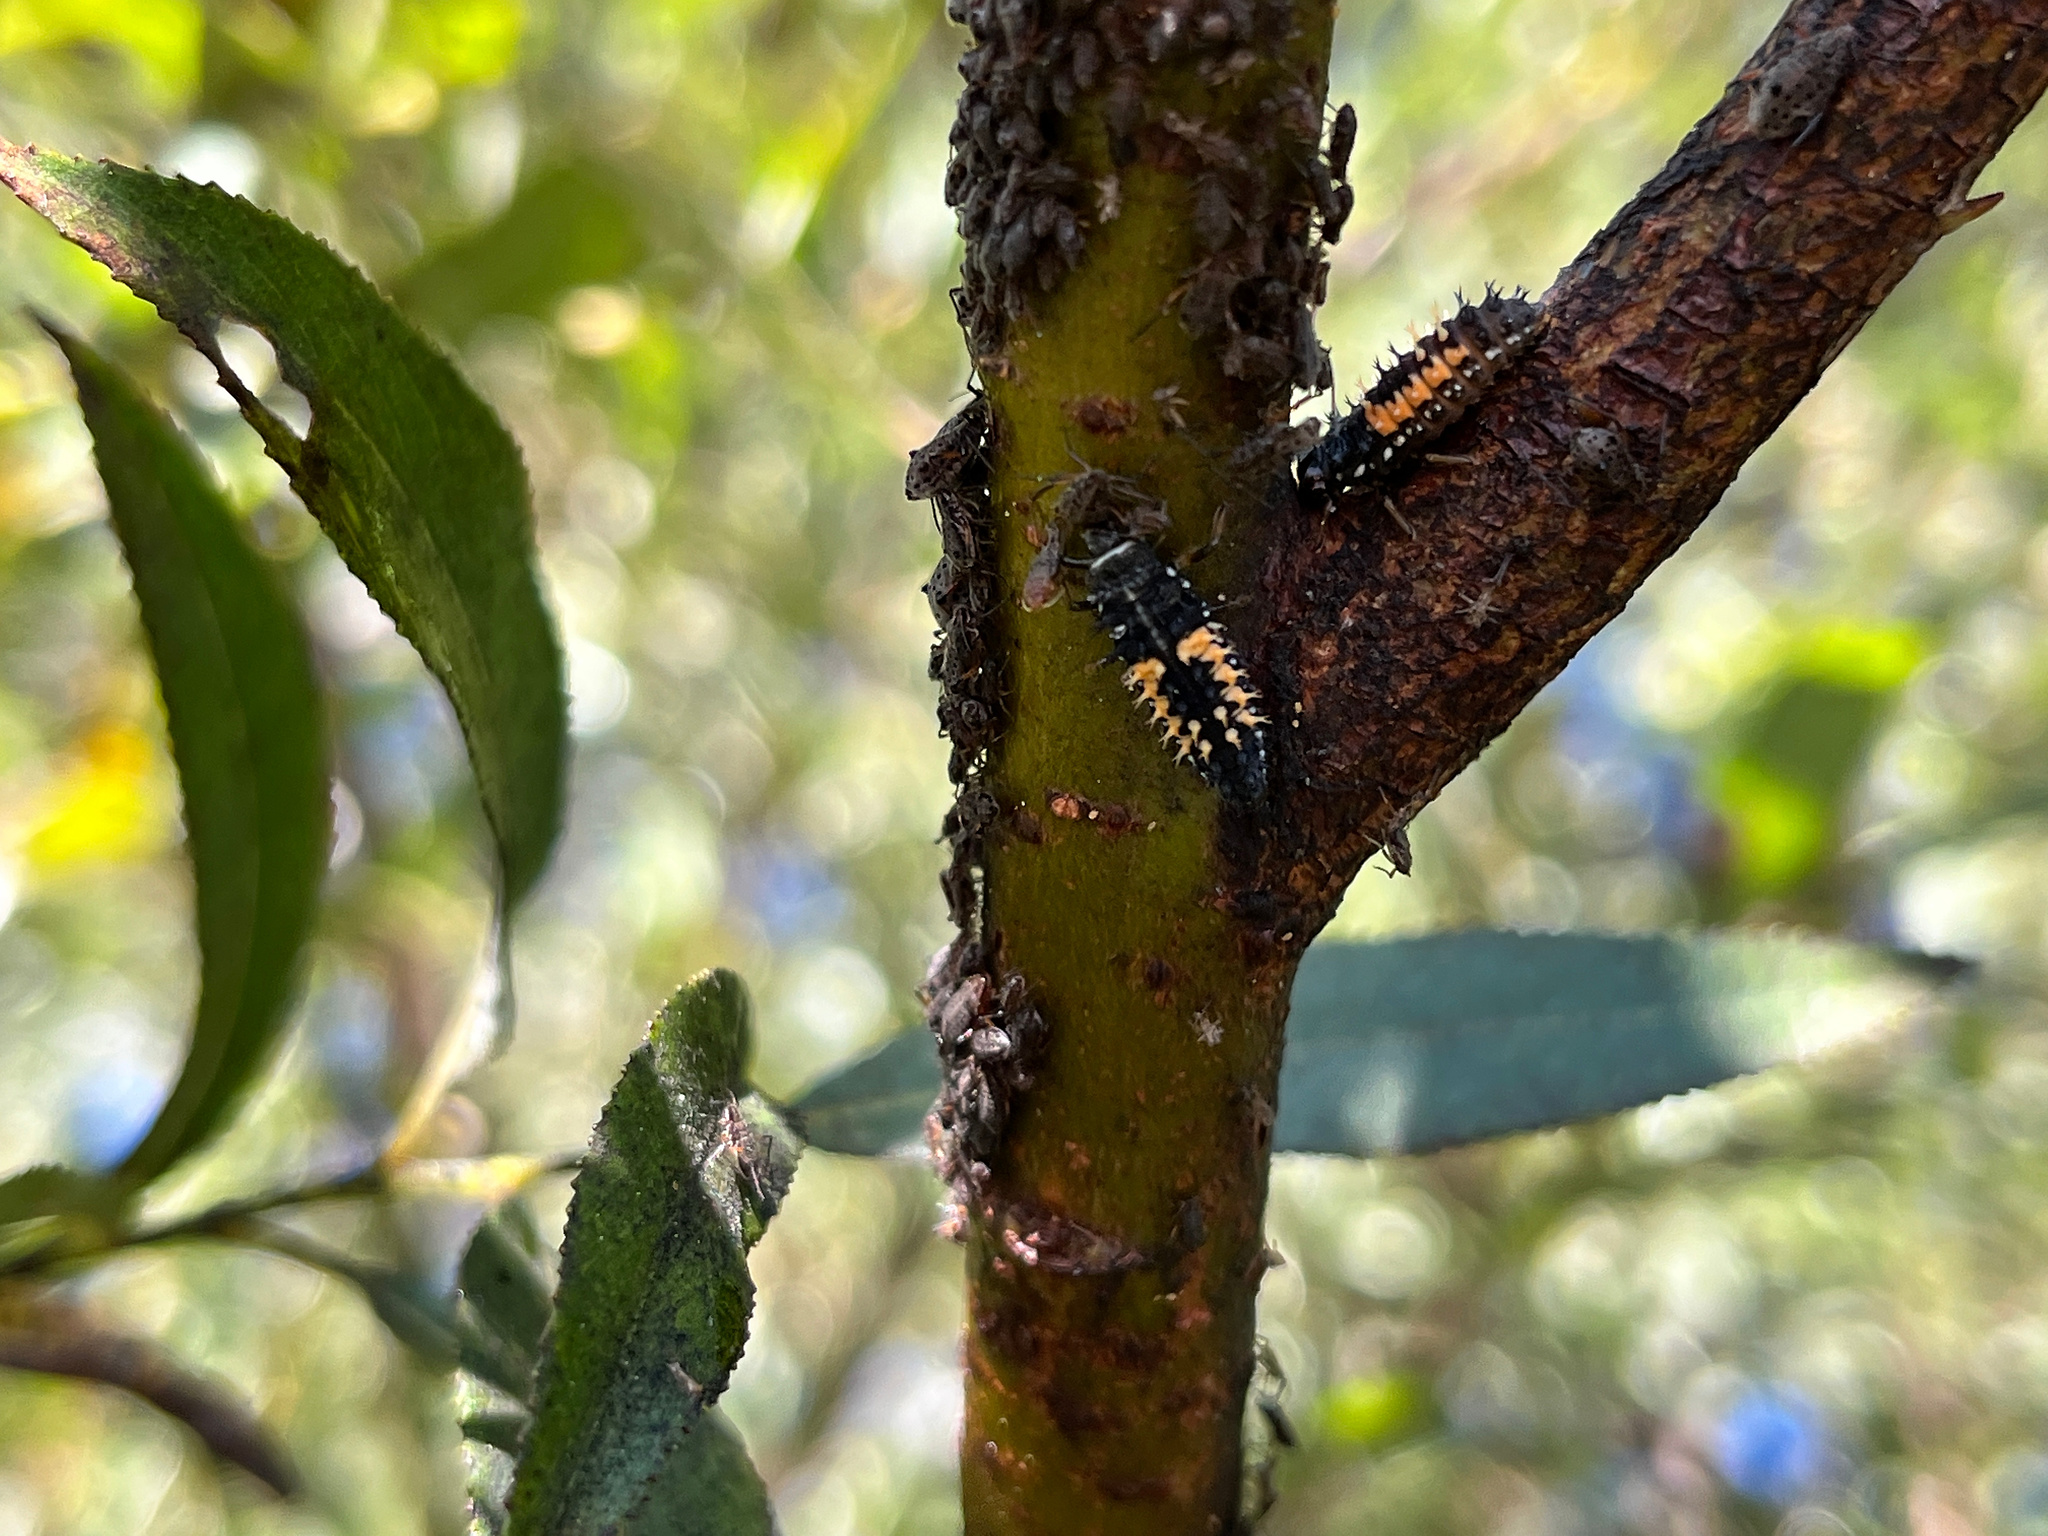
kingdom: Animalia
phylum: Arthropoda
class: Insecta
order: Coleoptera
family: Coccinellidae
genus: Harmonia
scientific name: Harmonia axyridis
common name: Harlequin ladybird
